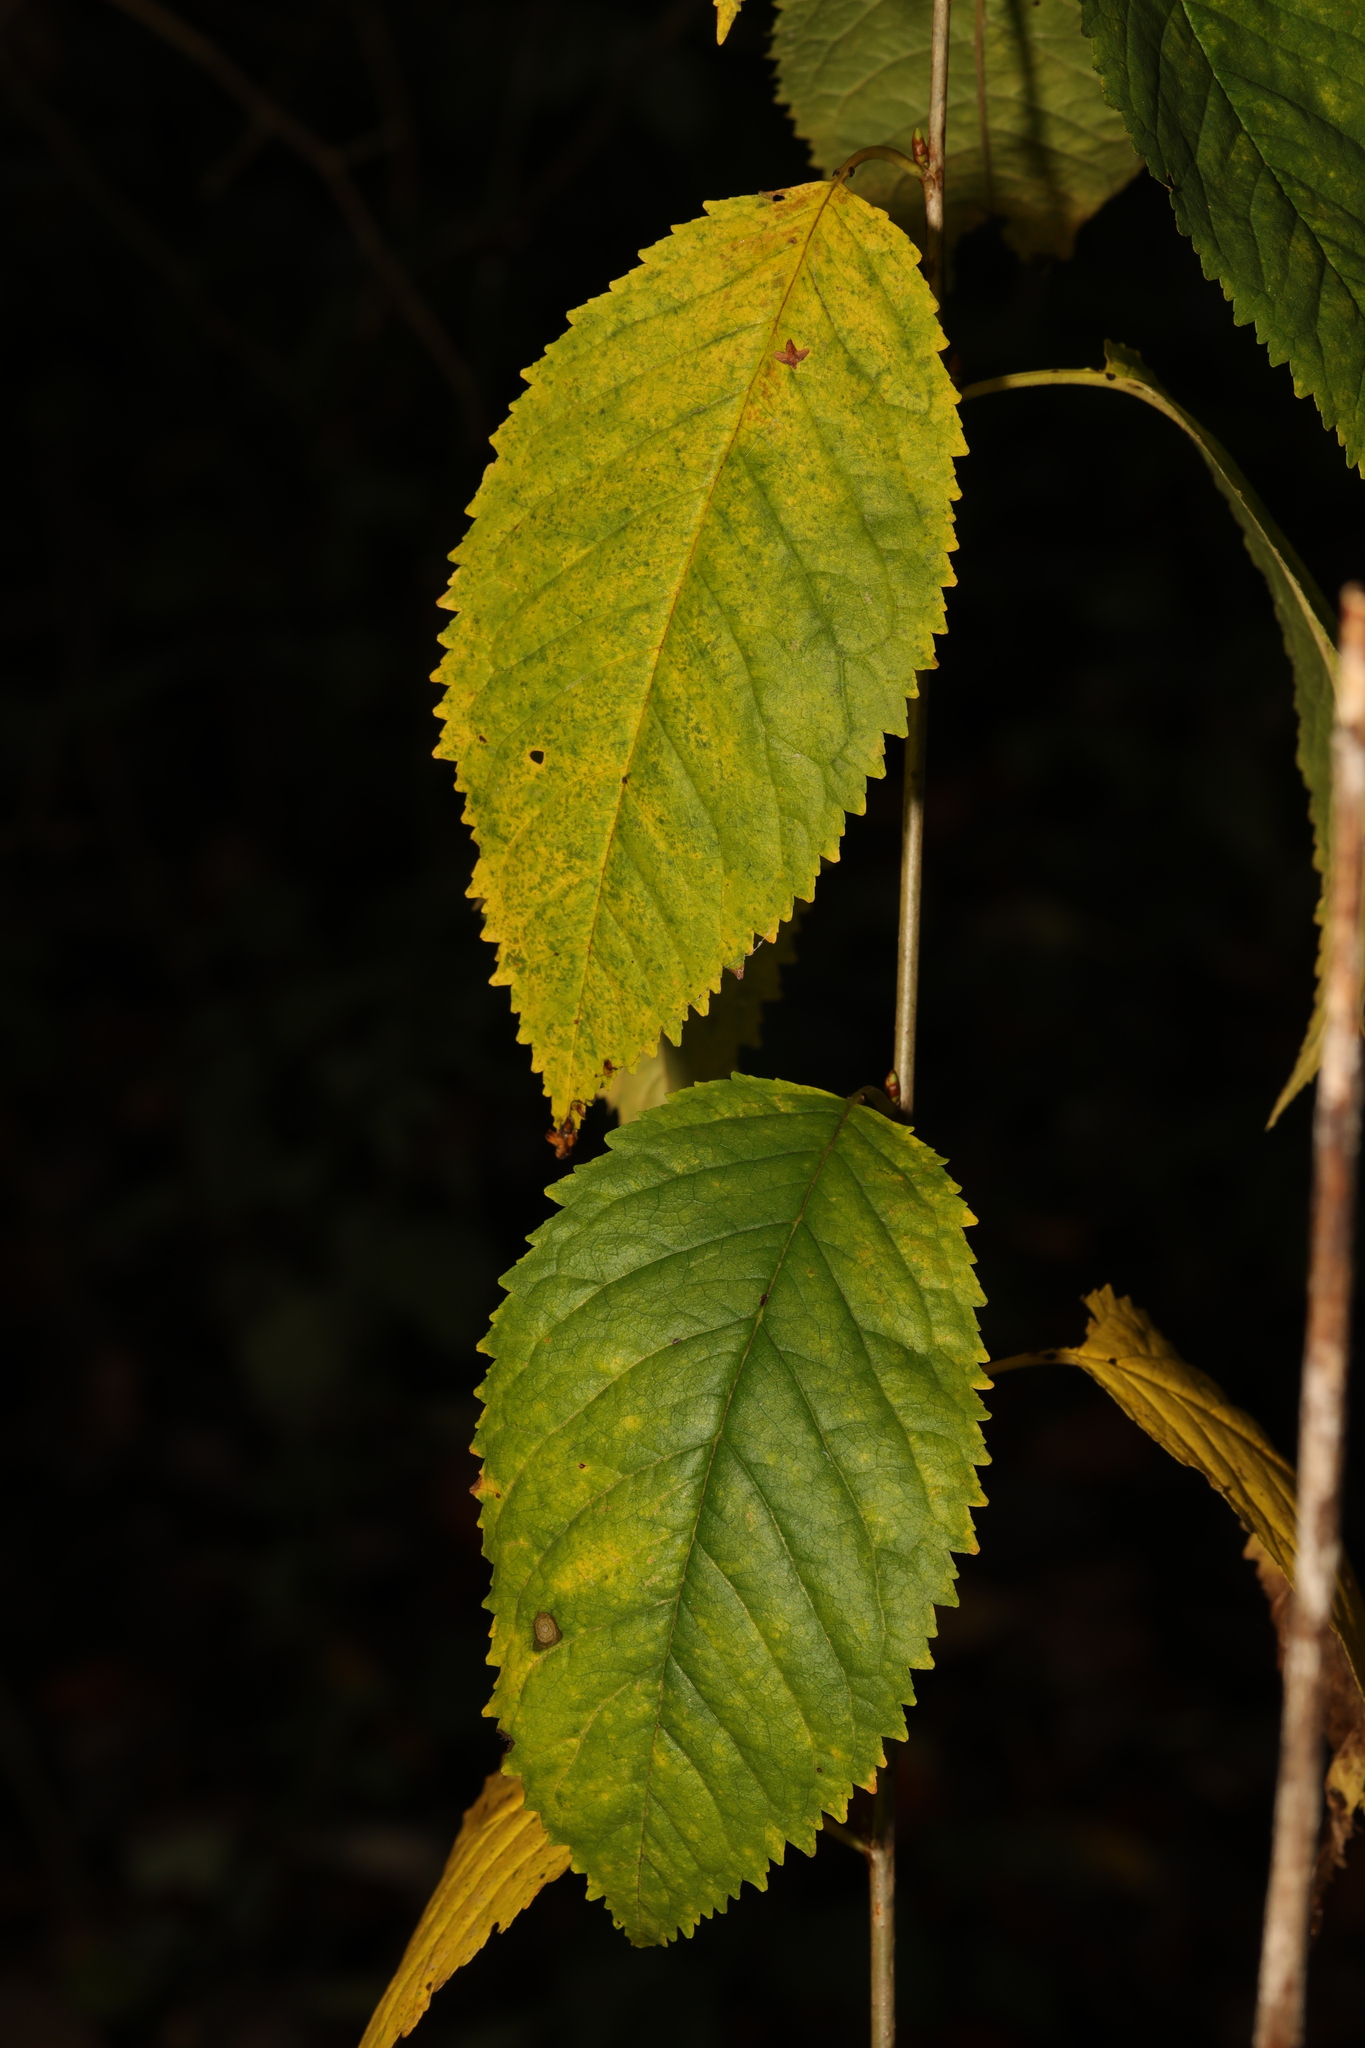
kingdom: Plantae
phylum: Tracheophyta
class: Magnoliopsida
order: Rosales
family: Rosaceae
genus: Prunus
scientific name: Prunus avium
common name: Sweet cherry
